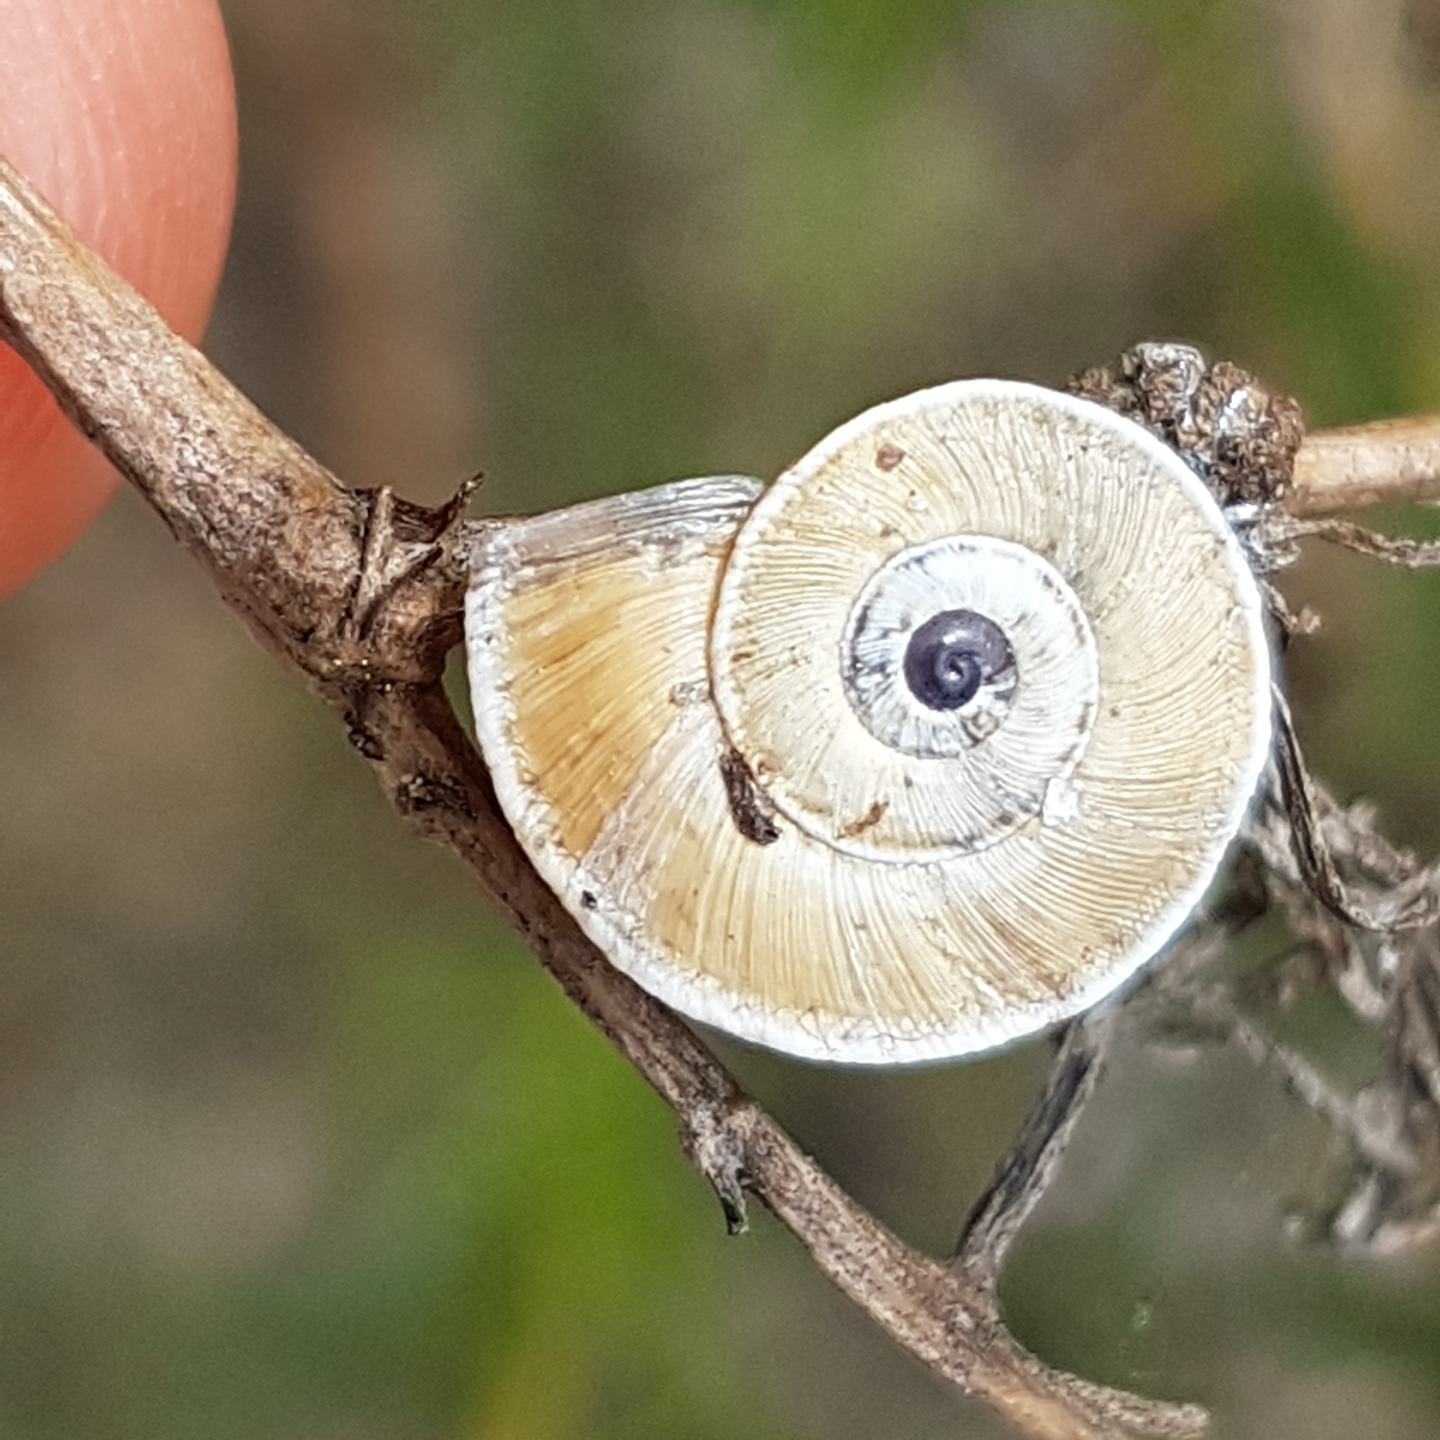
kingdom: Animalia
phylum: Mollusca
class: Gastropoda
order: Stylommatophora
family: Geomitridae
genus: Xerosecta
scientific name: Xerosecta explanata
